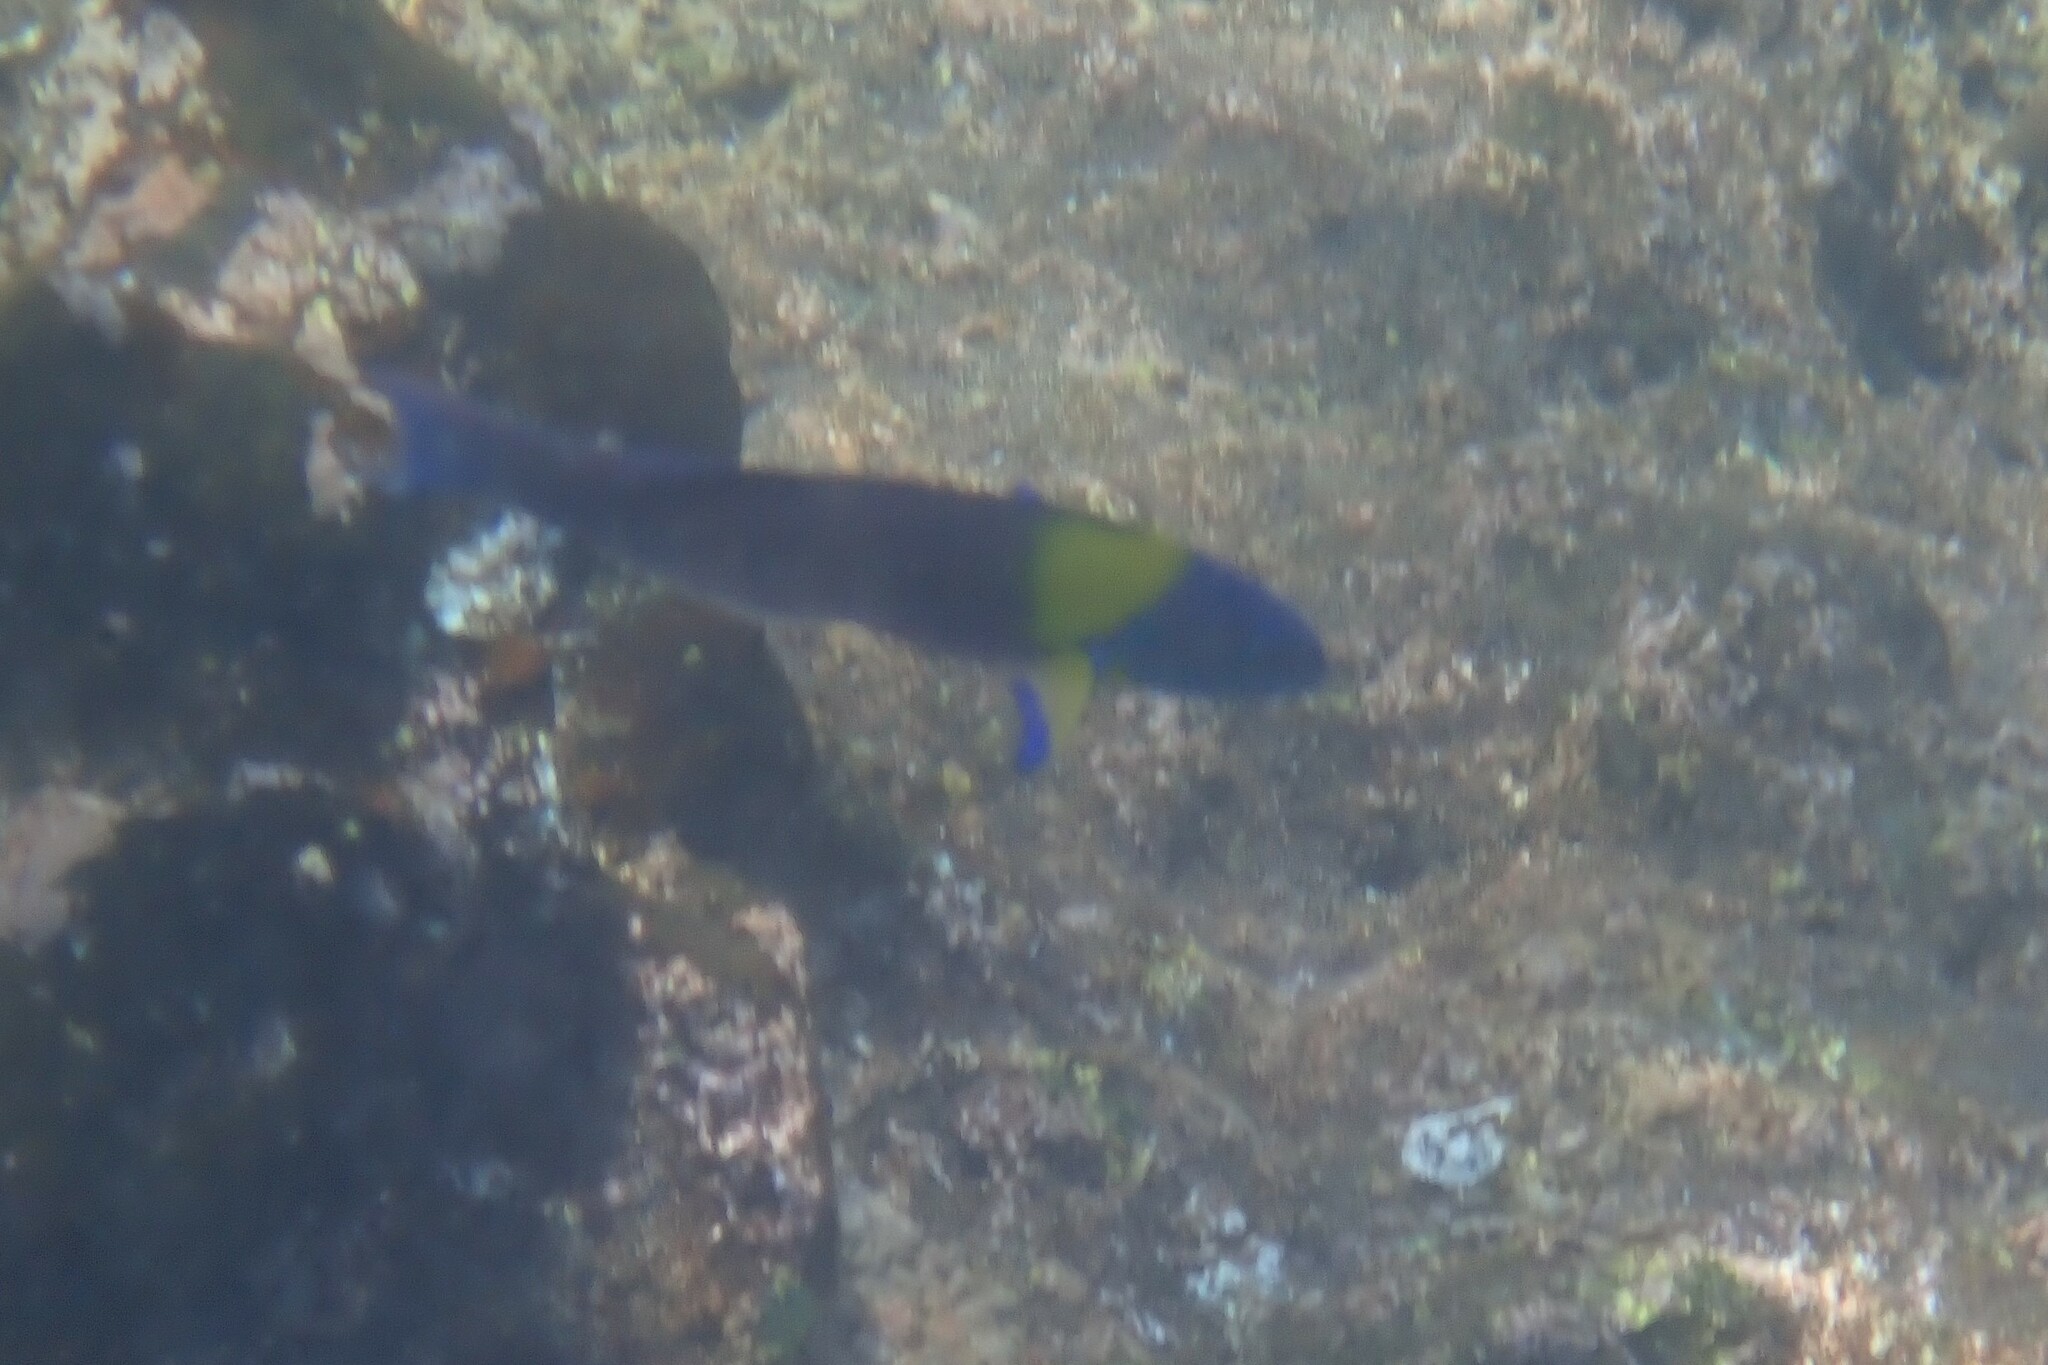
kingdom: Animalia
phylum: Chordata
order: Perciformes
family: Labridae
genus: Thalassoma
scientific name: Thalassoma lucasanum
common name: Cortez rainbow wrasse
